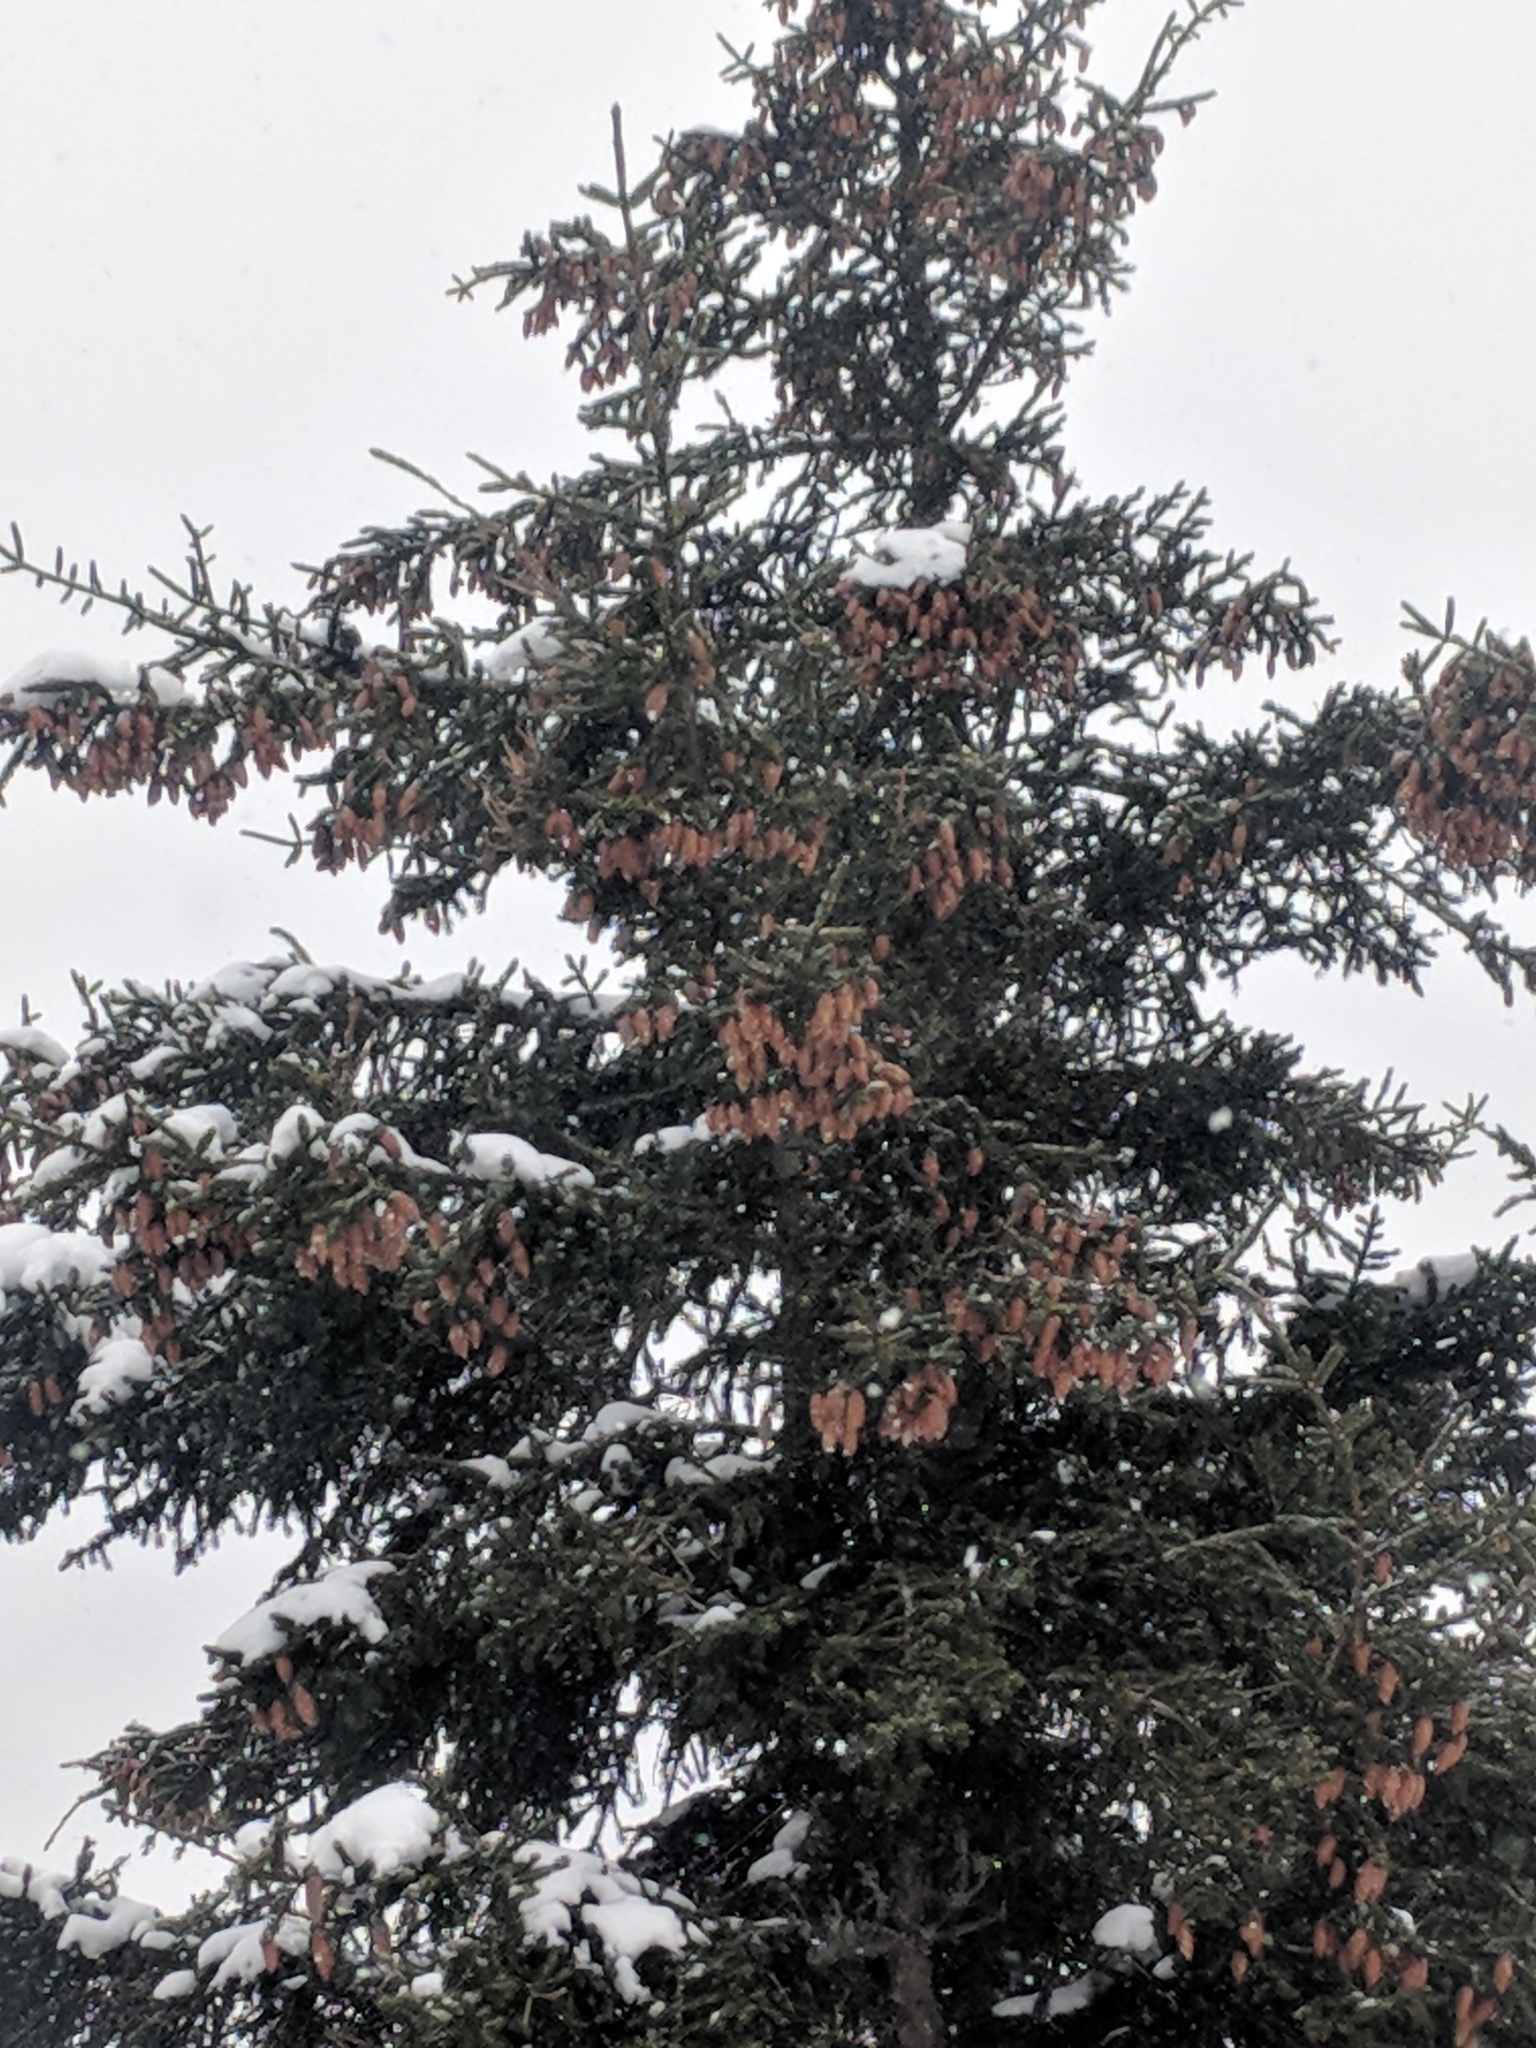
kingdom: Plantae
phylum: Tracheophyta
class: Pinopsida
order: Pinales
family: Pinaceae
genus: Picea
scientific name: Picea rubens
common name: Red spruce
